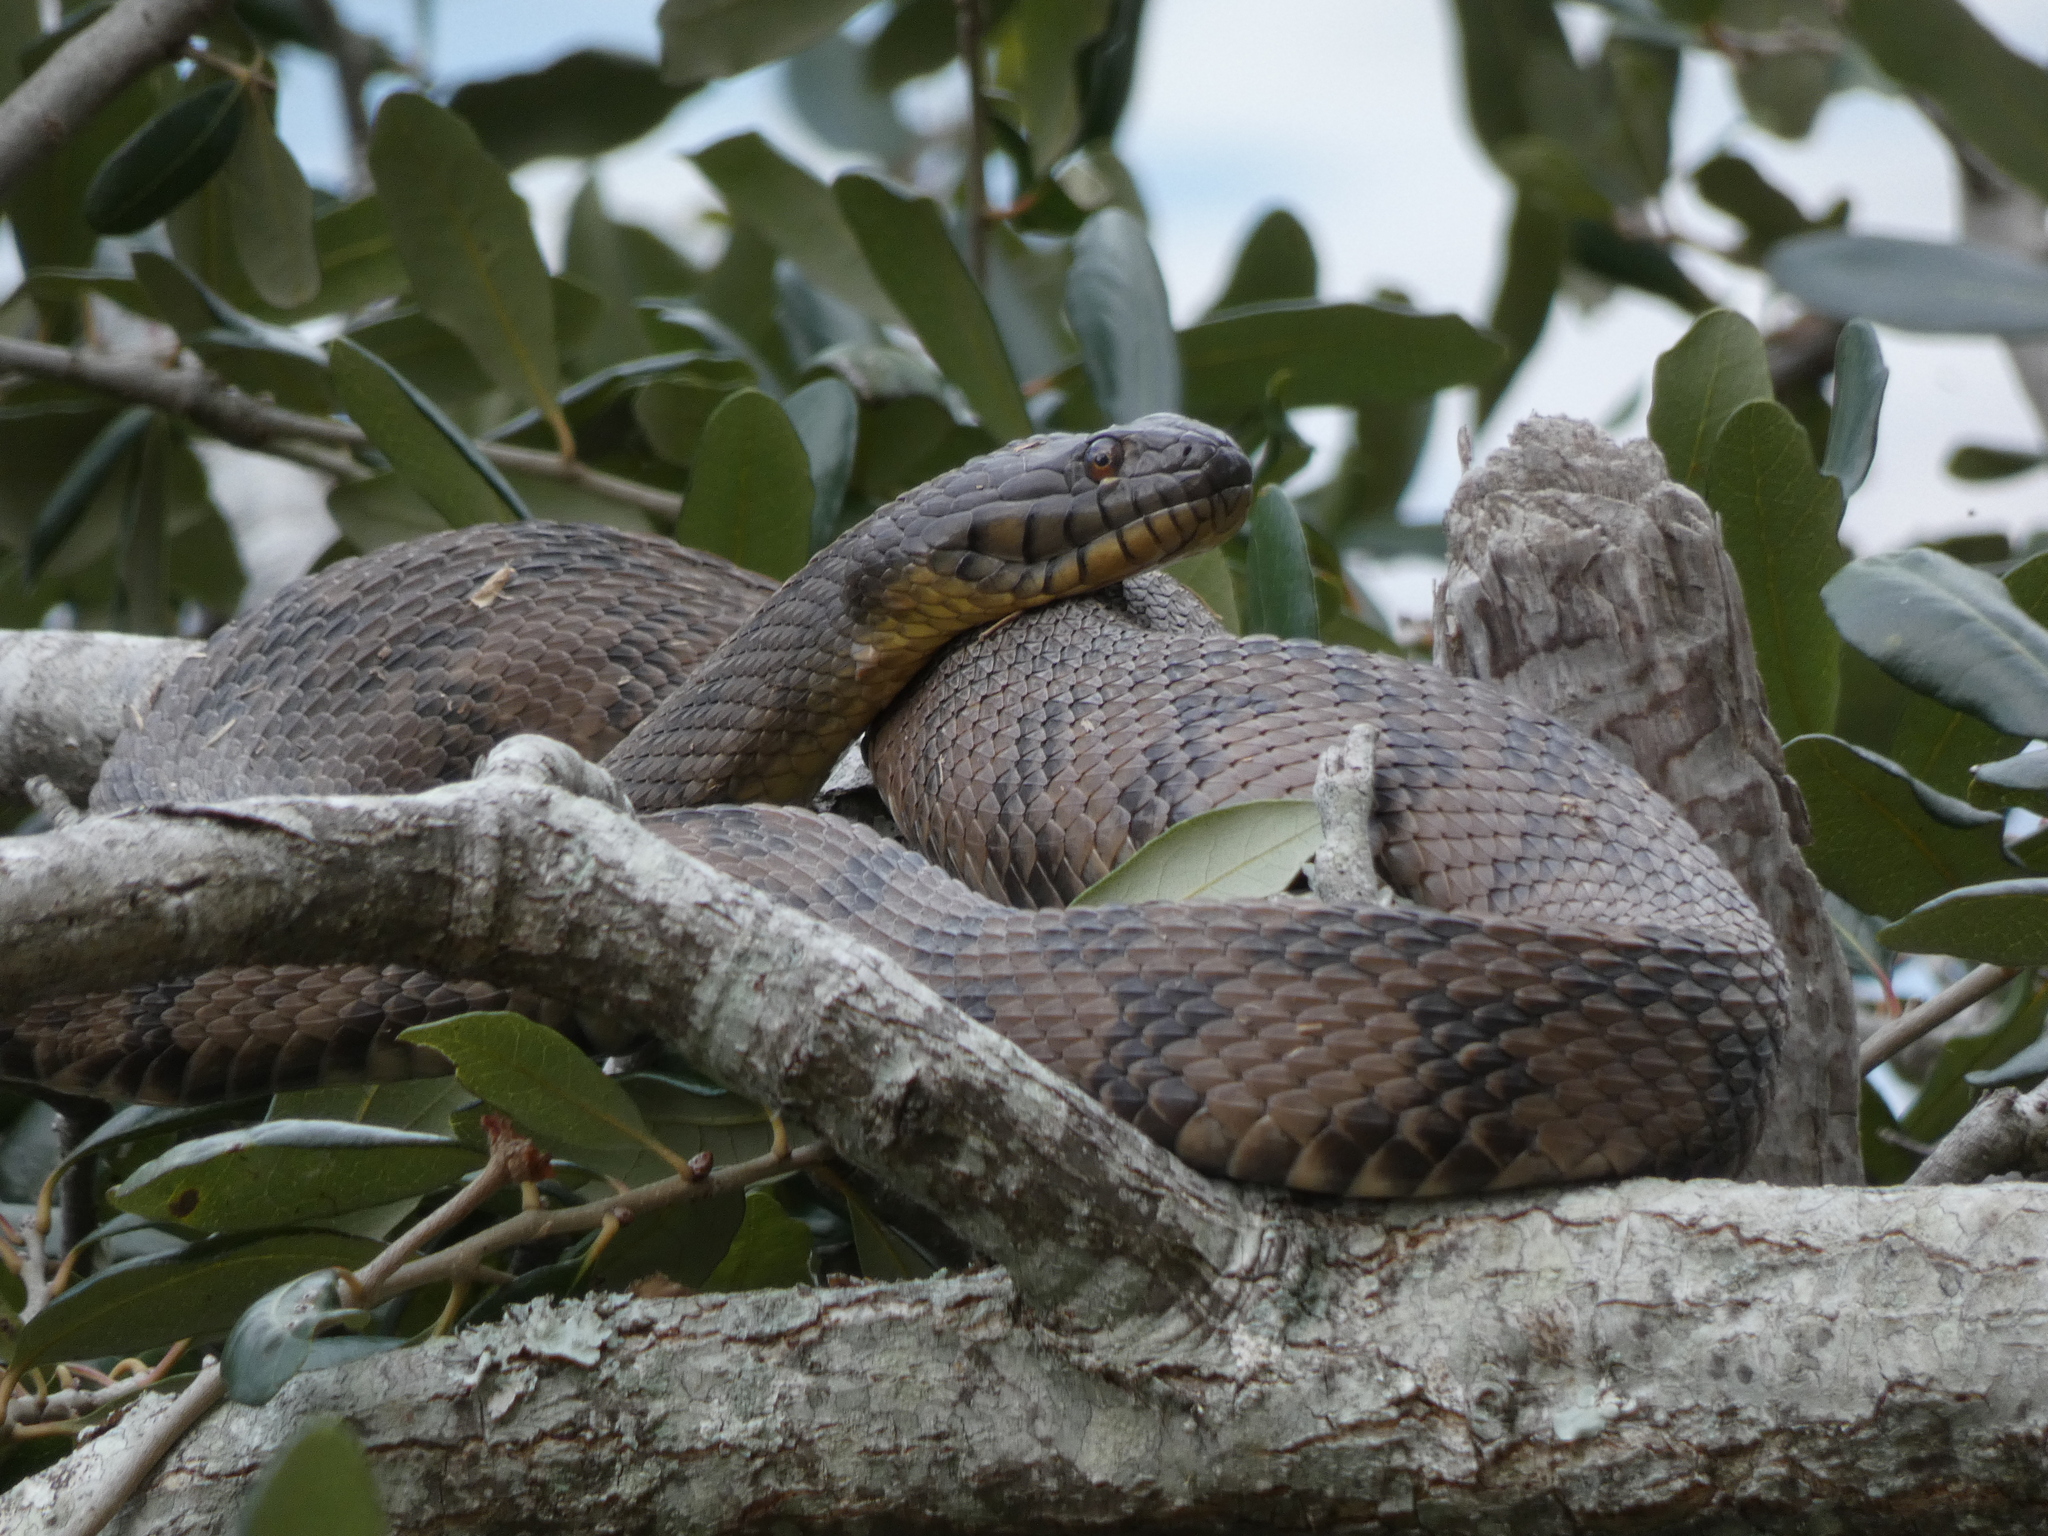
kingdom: Animalia
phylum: Chordata
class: Squamata
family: Colubridae
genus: Nerodia
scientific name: Nerodia rhombifer
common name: Diamondback water snake
